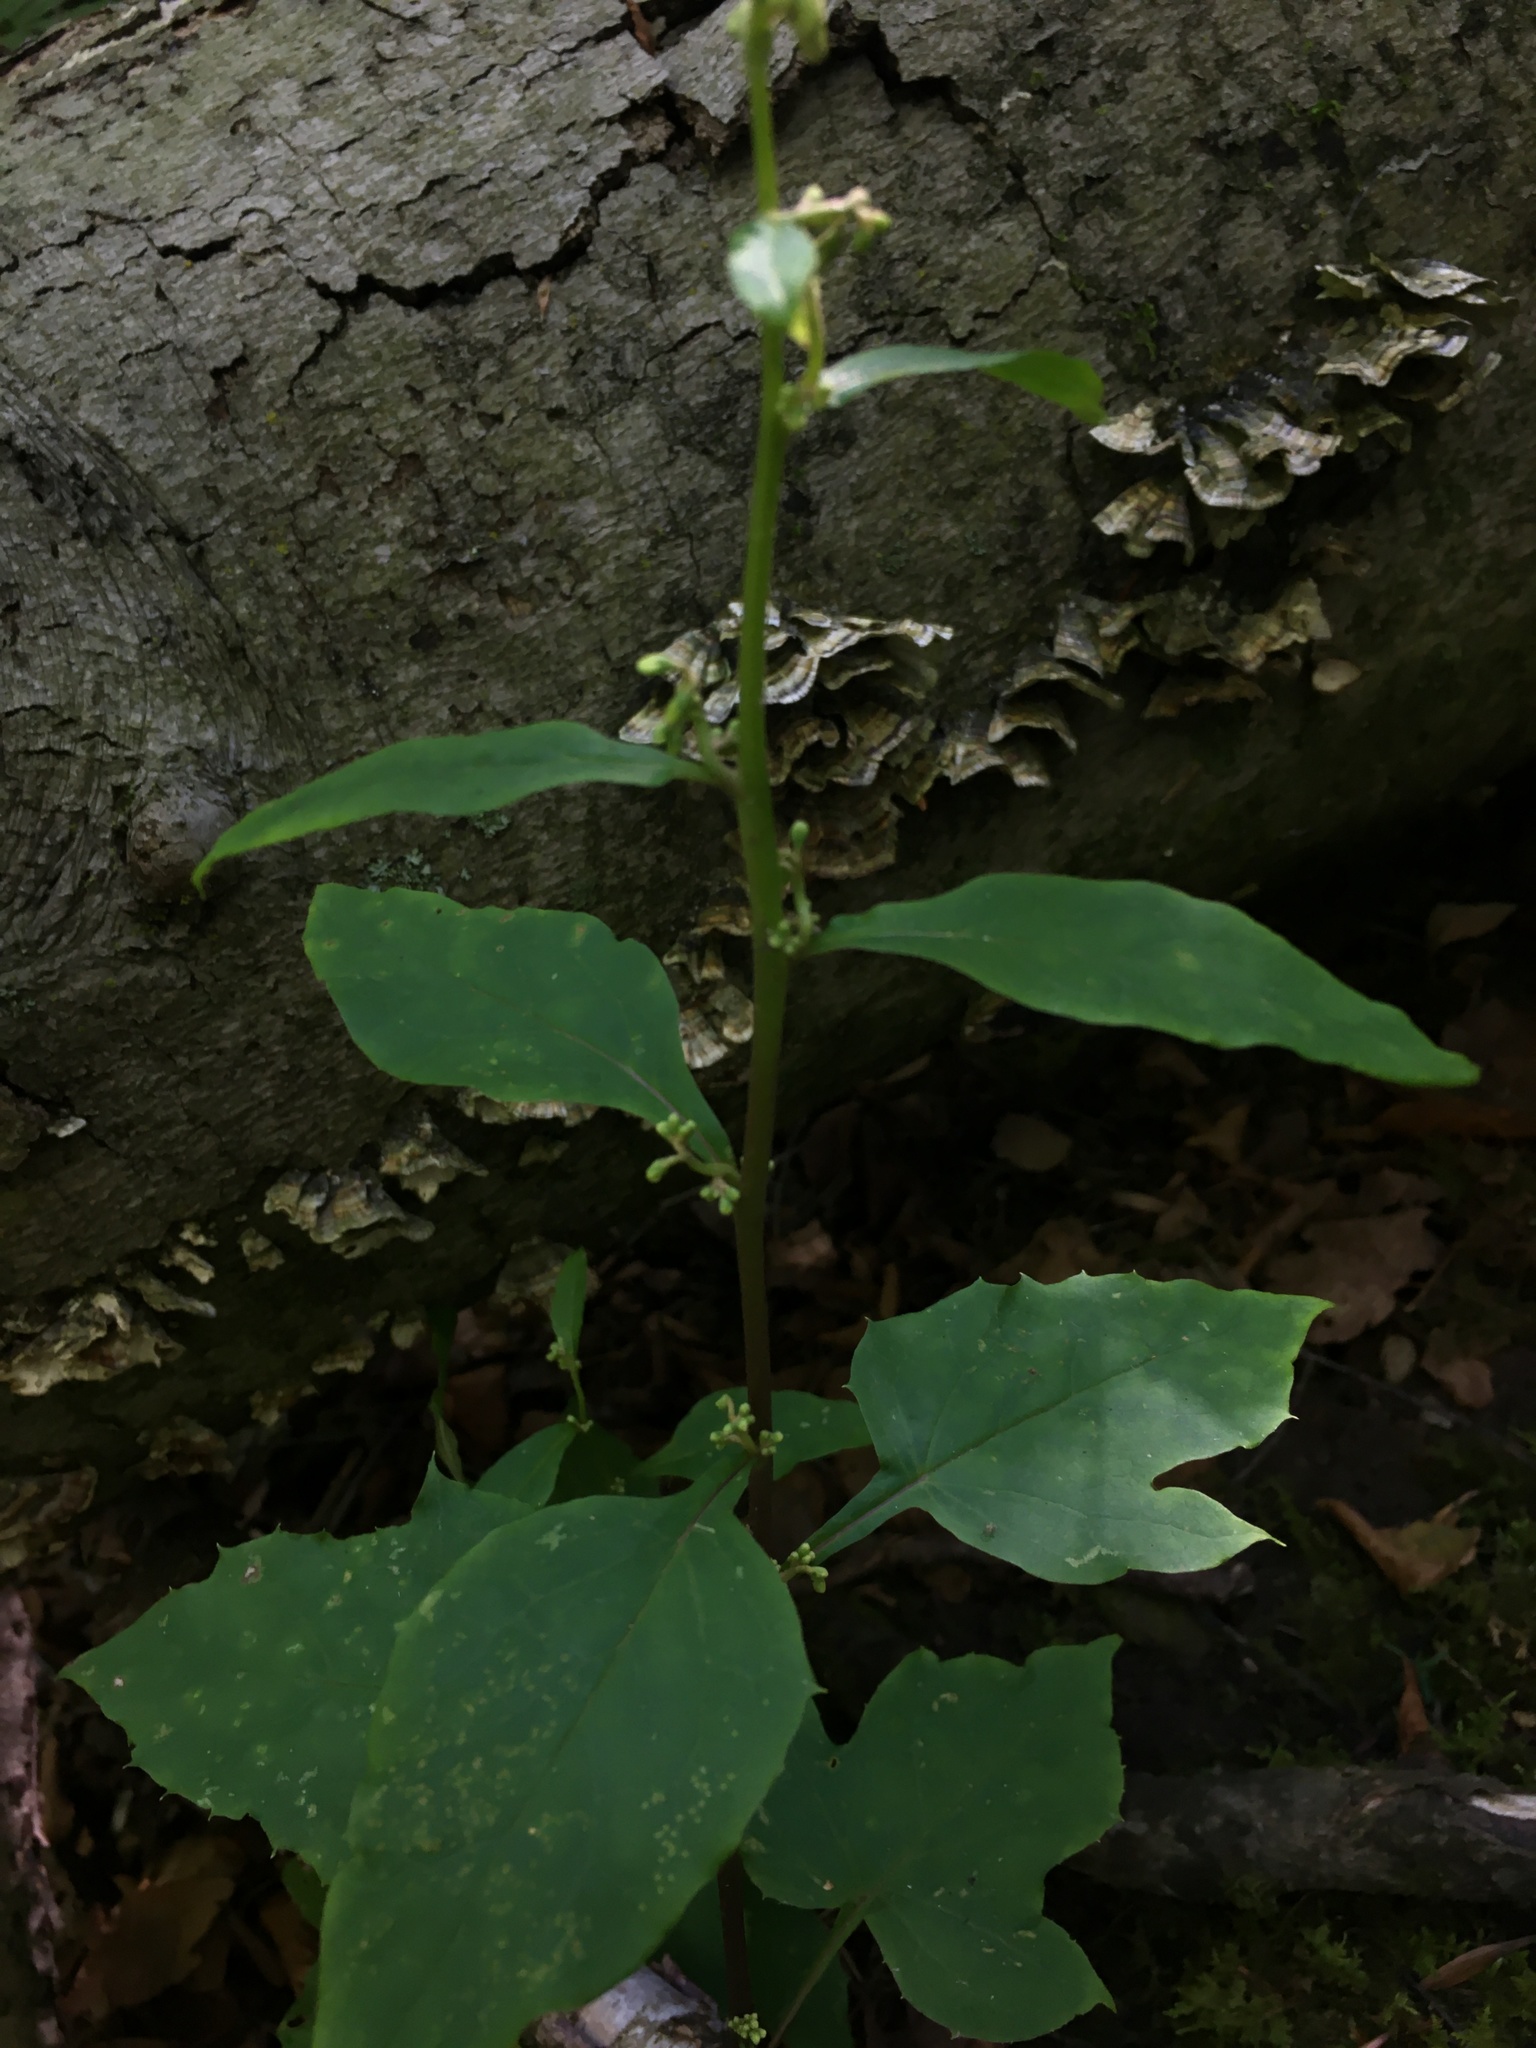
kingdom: Plantae
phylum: Tracheophyta
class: Magnoliopsida
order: Asterales
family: Asteraceae
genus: Nabalus
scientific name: Nabalus altissima
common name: Tall rattlesnakeroot
